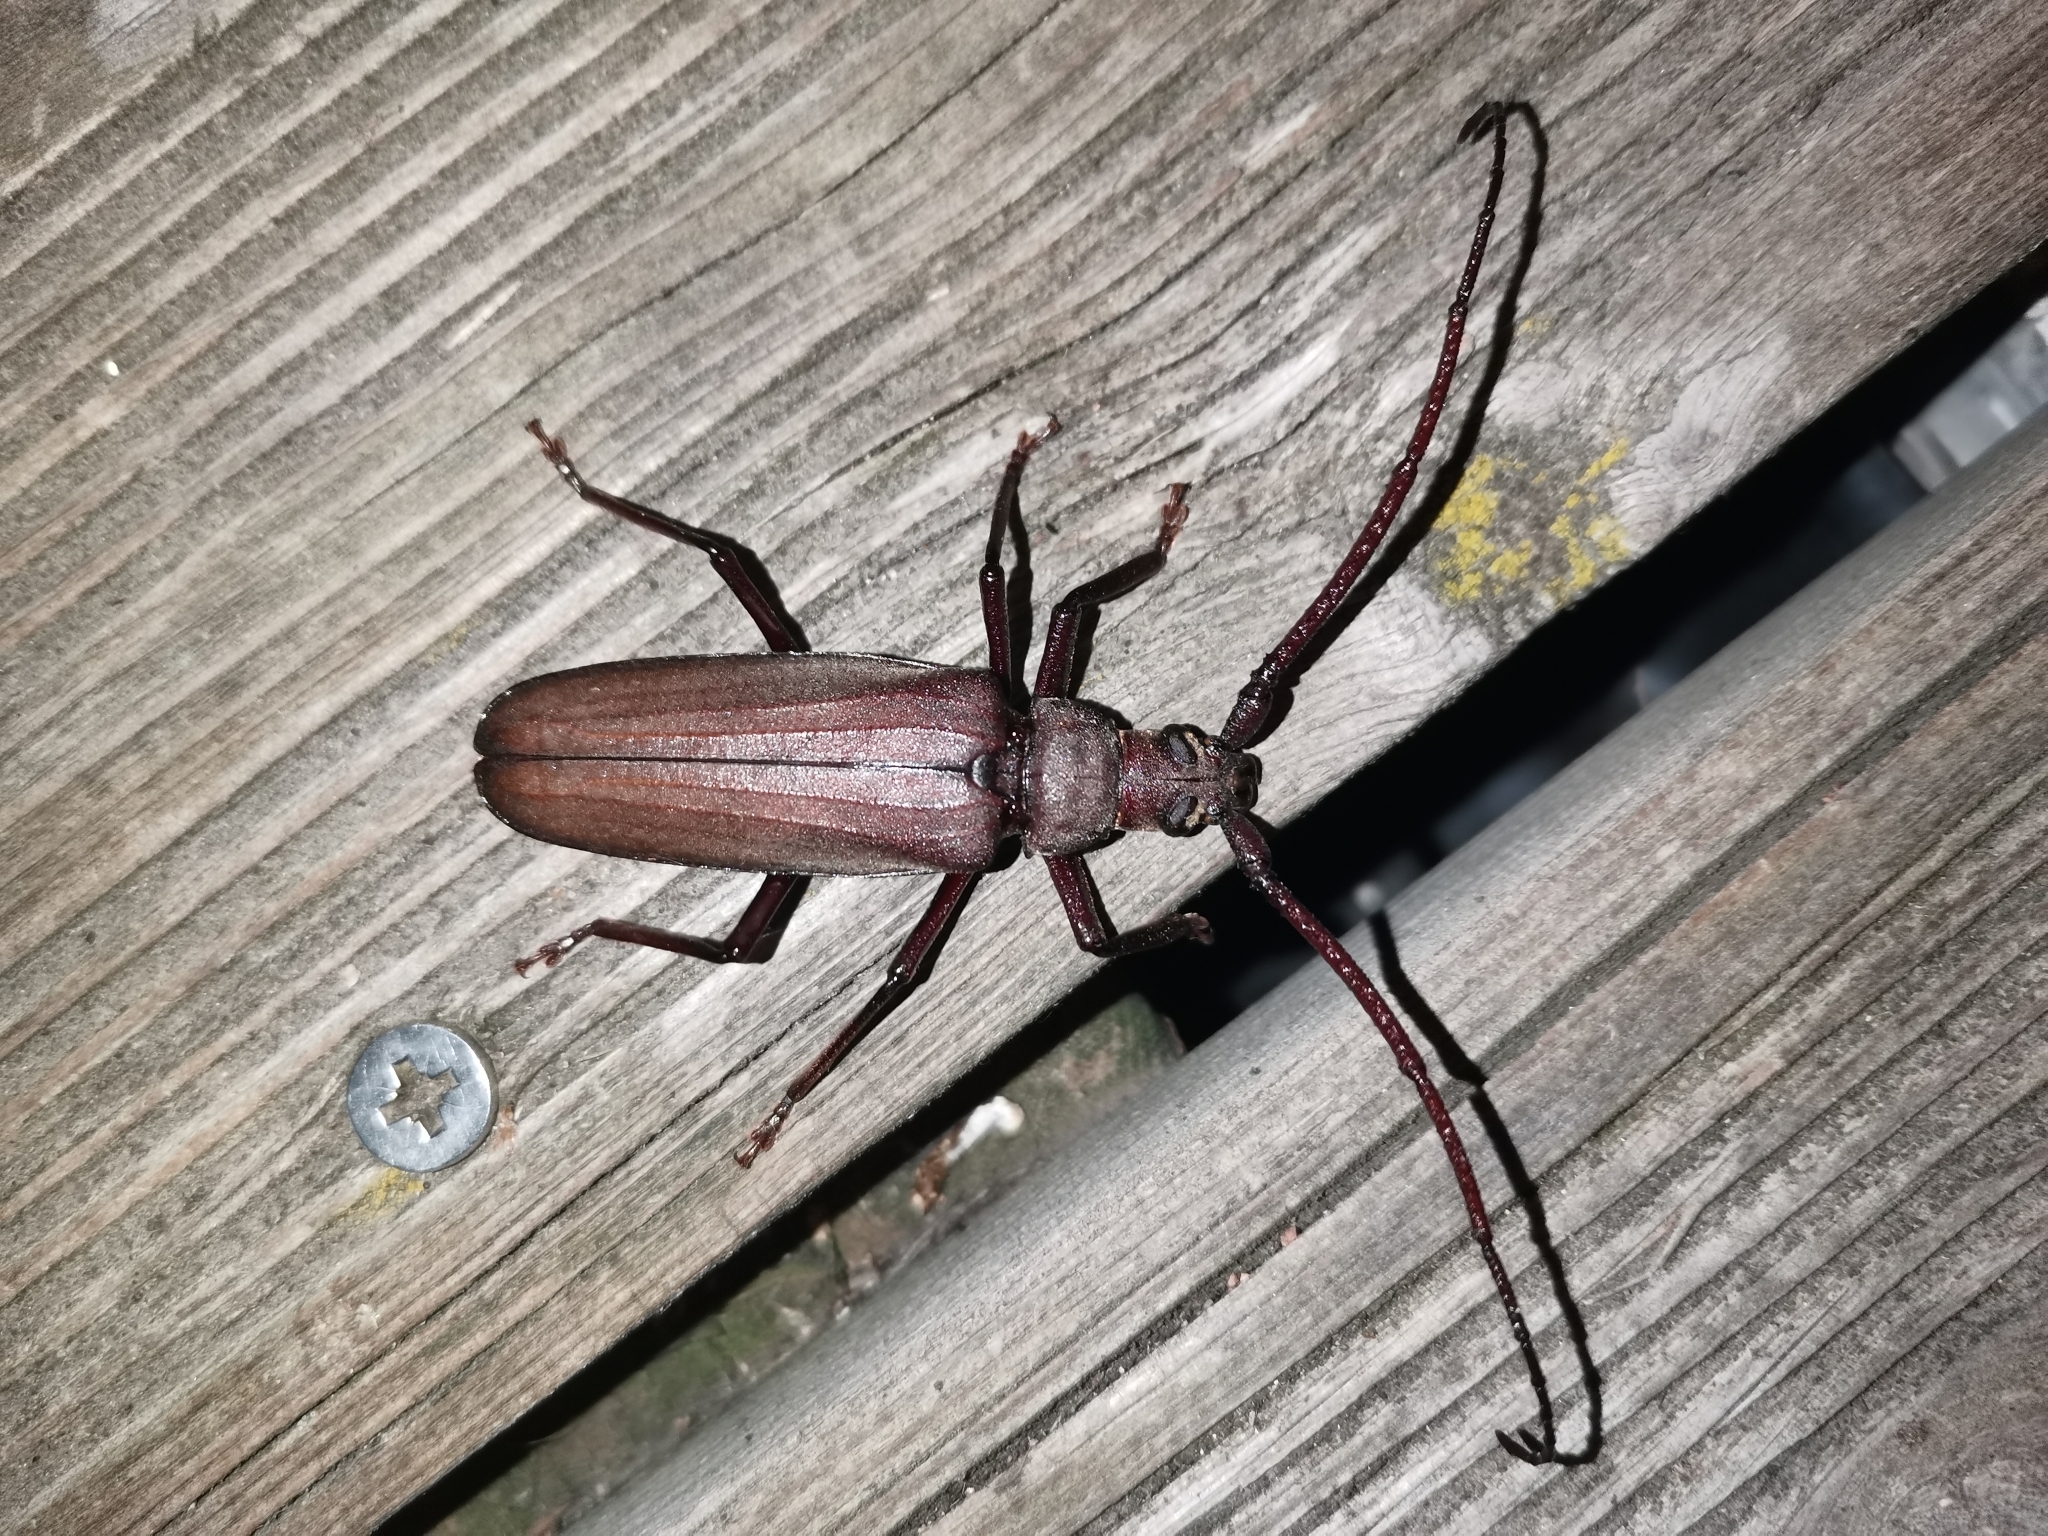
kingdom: Animalia
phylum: Arthropoda
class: Insecta
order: Coleoptera
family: Cerambycidae
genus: Aegosoma
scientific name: Aegosoma scabricorne
